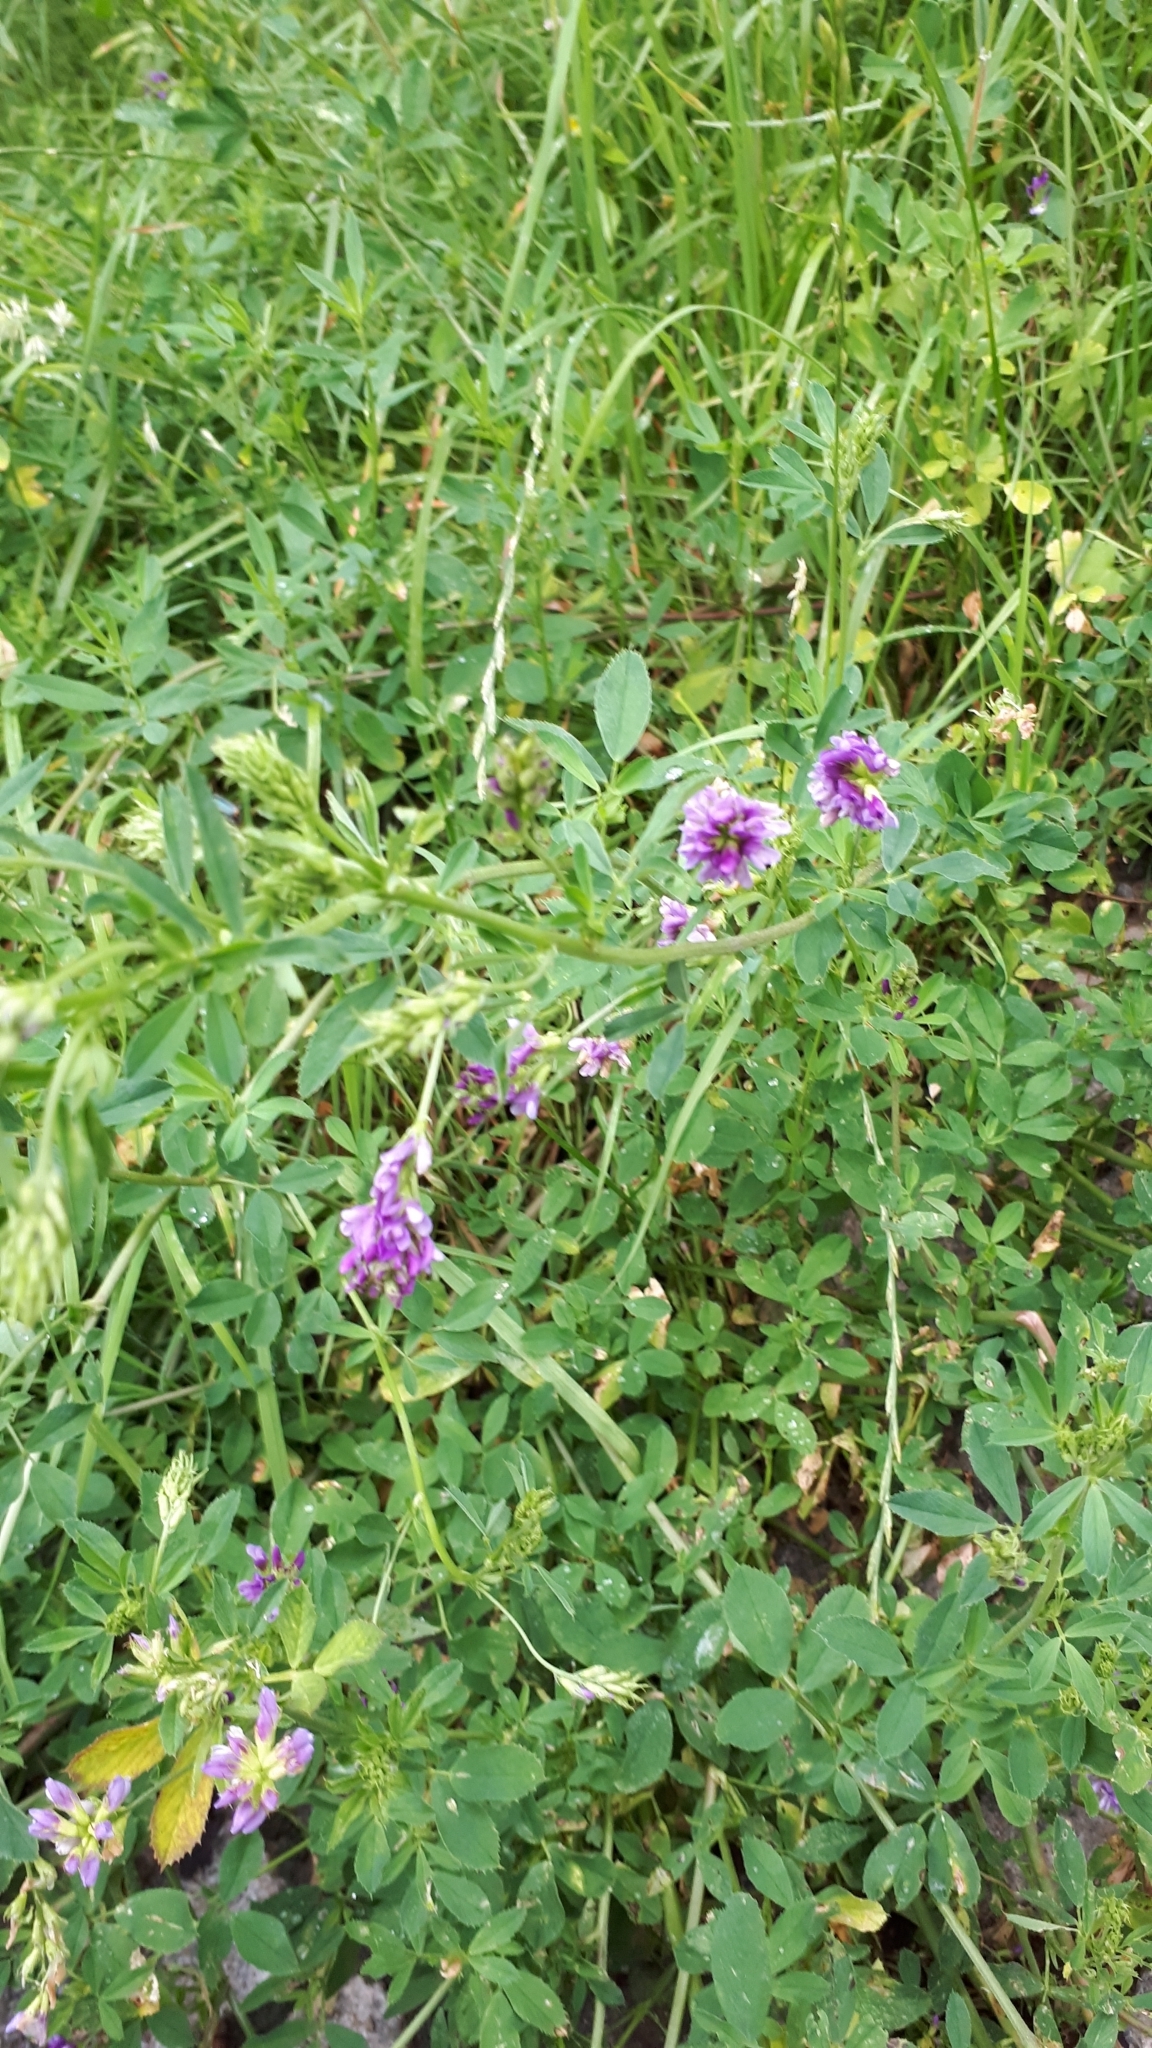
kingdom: Plantae
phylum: Tracheophyta
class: Magnoliopsida
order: Fabales
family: Fabaceae
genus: Medicago
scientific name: Medicago sativa
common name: Alfalfa
